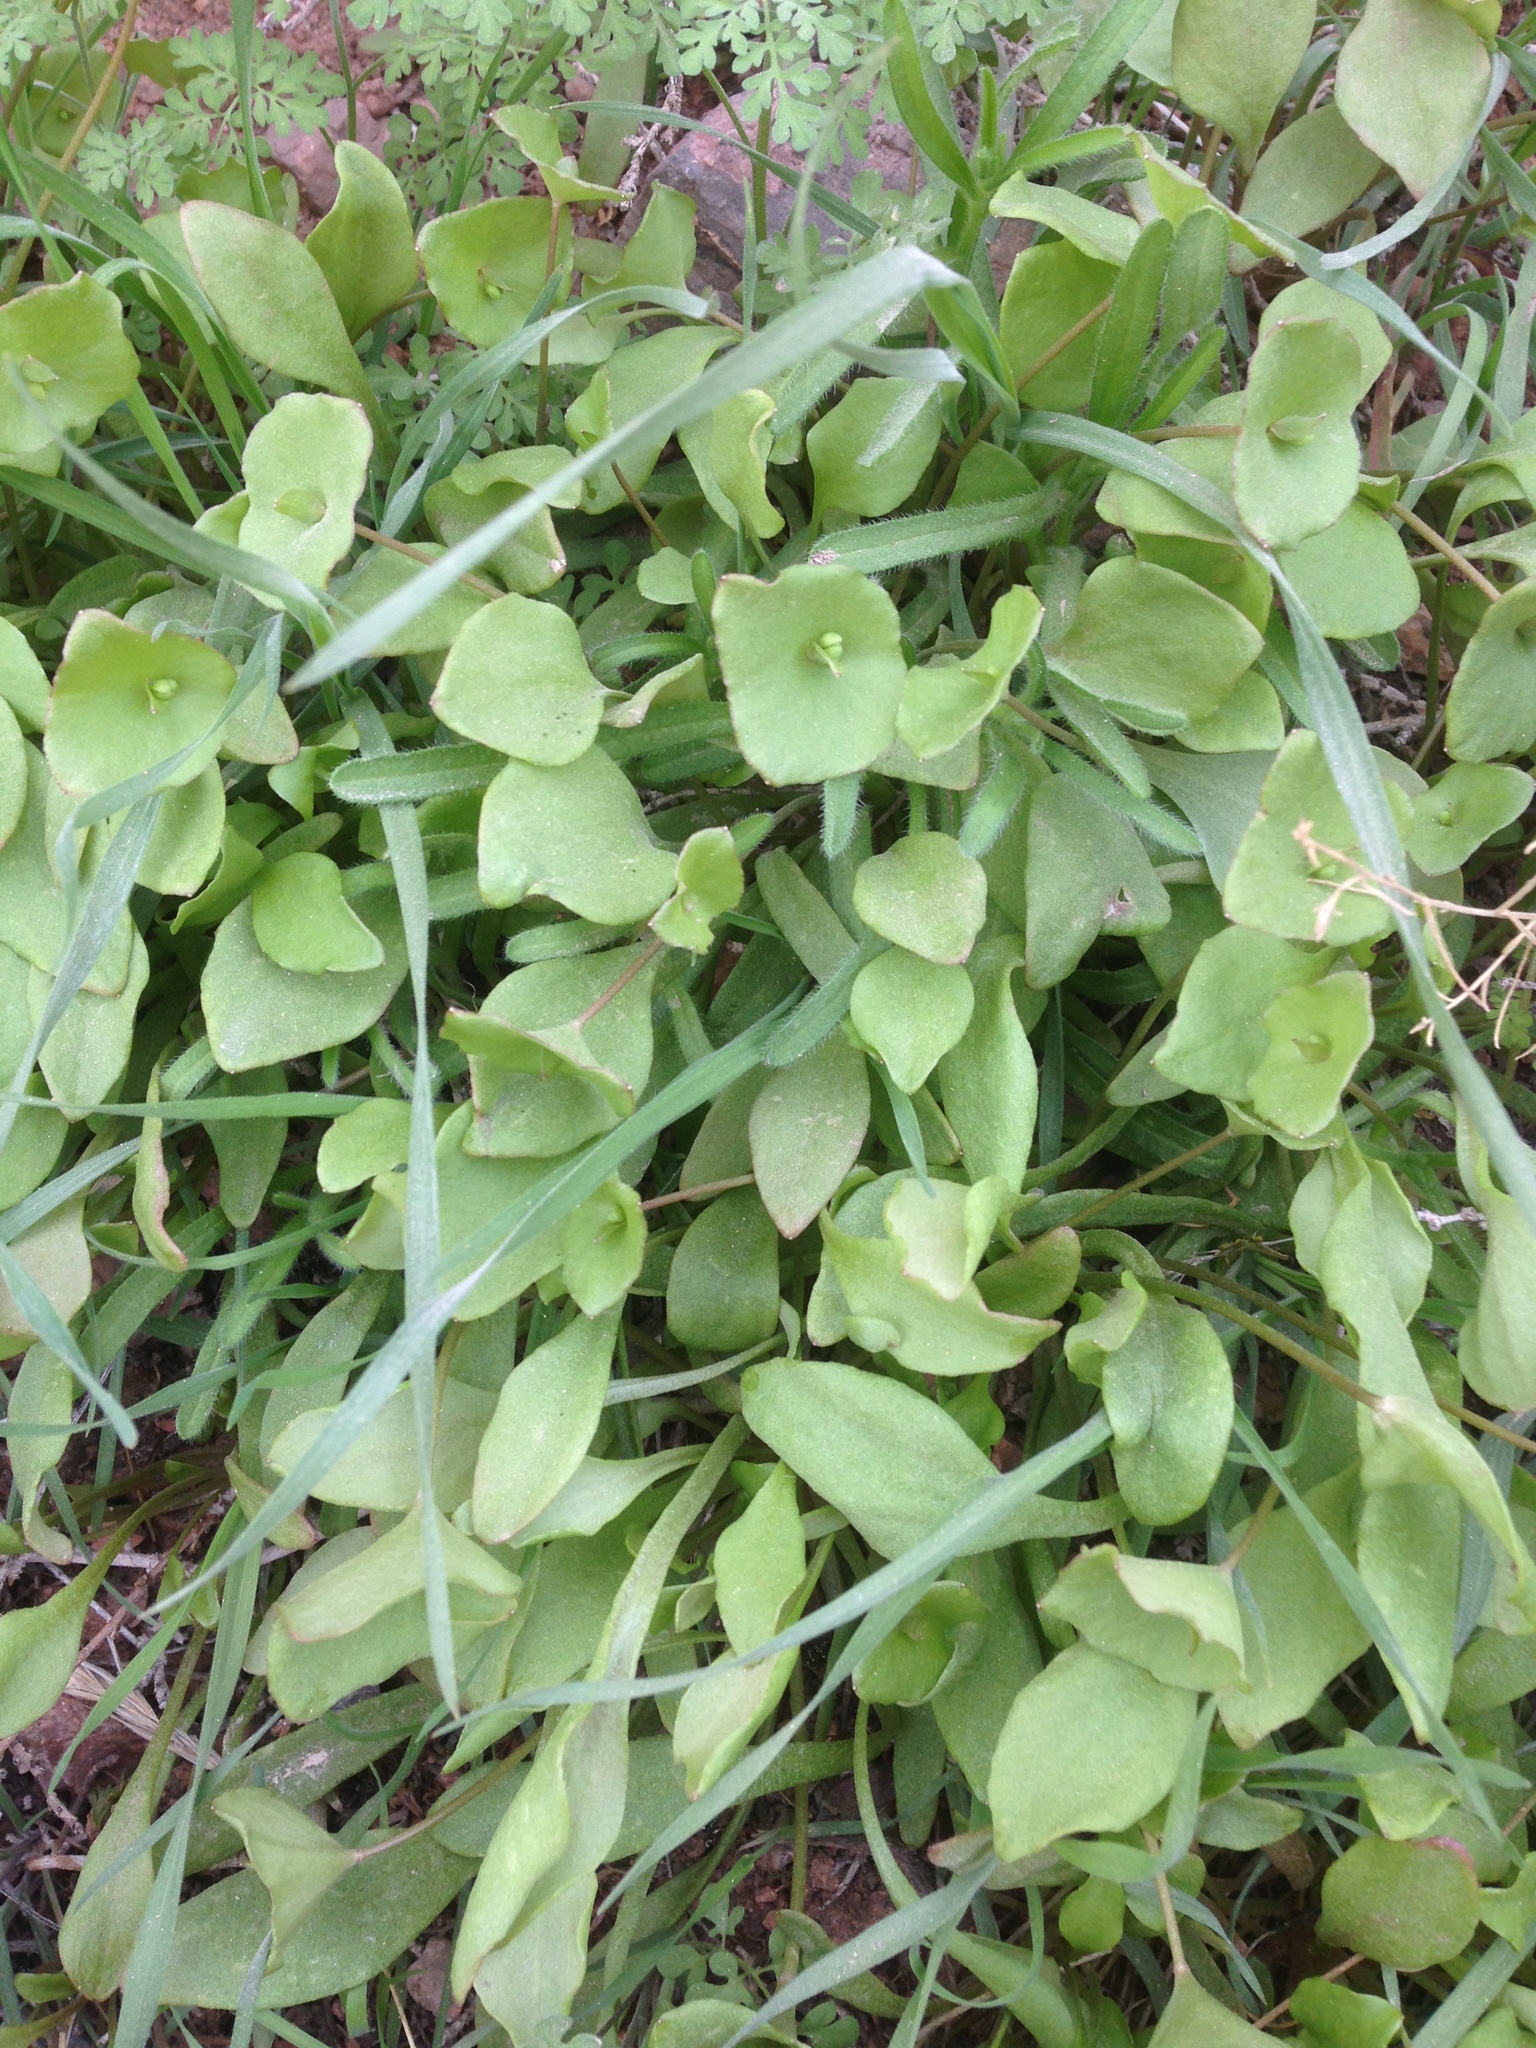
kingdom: Plantae
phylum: Tracheophyta
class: Magnoliopsida
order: Caryophyllales
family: Montiaceae
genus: Claytonia
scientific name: Claytonia perfoliata
